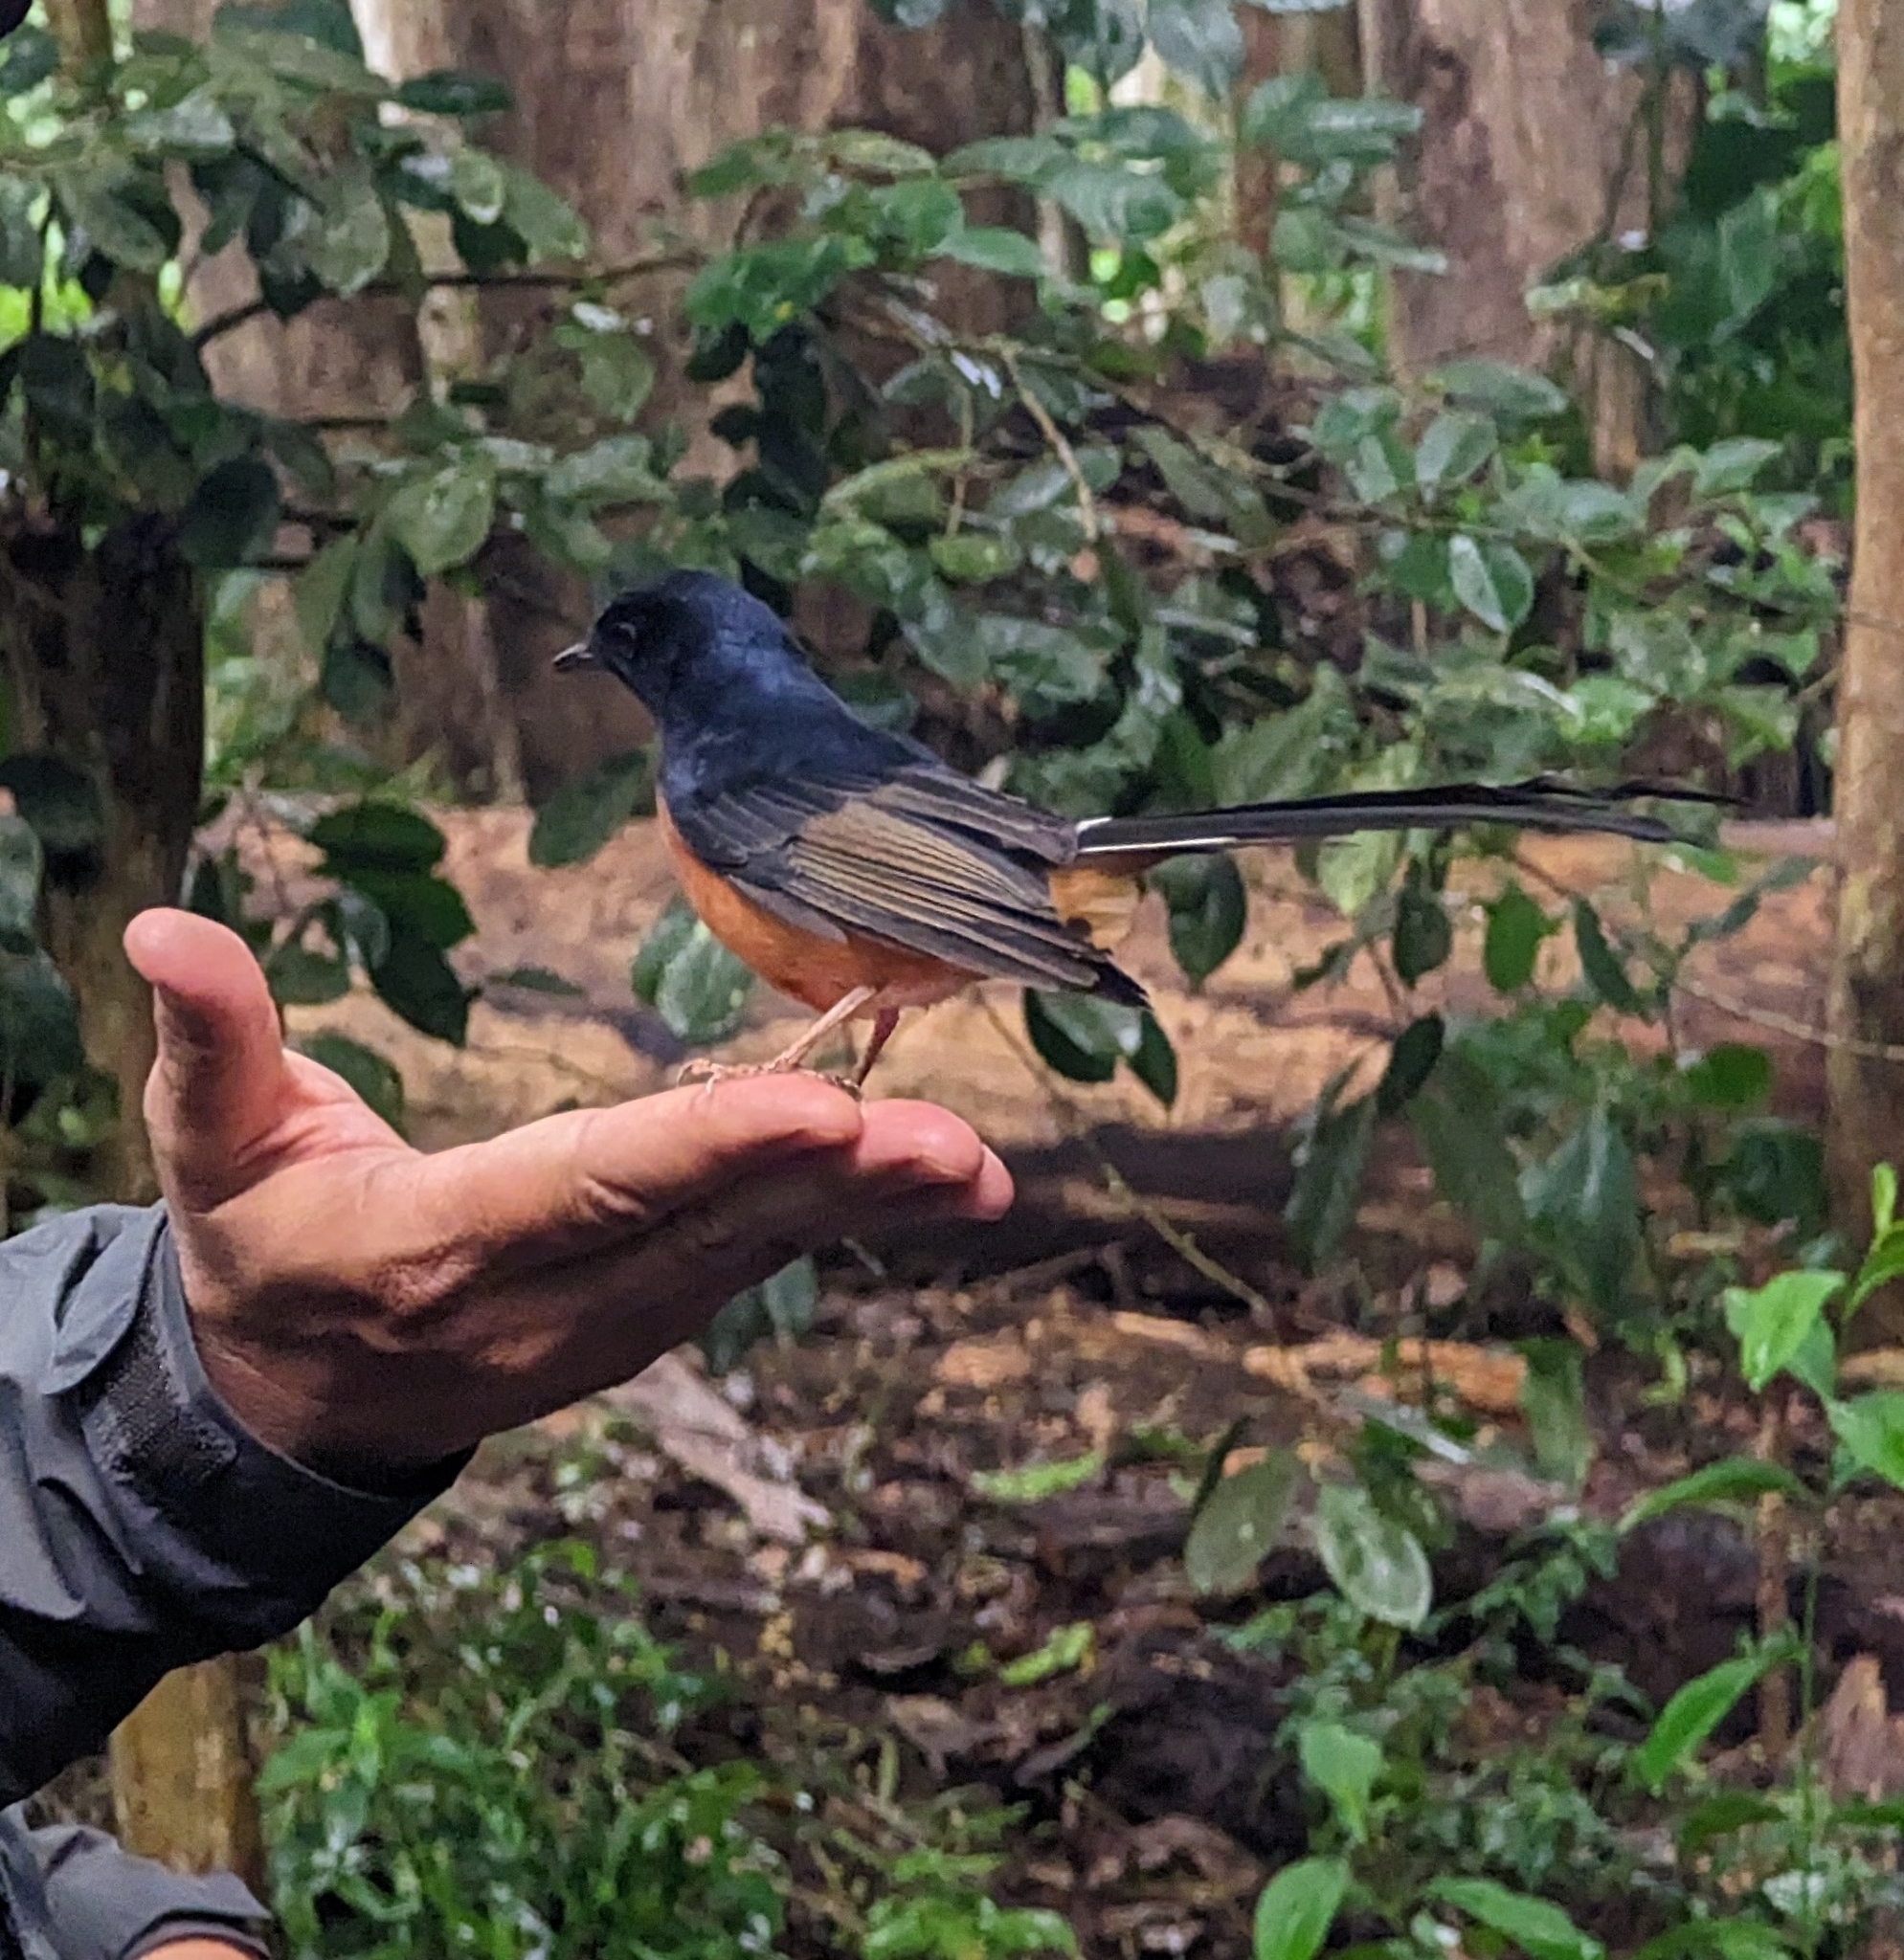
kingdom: Animalia
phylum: Chordata
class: Aves
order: Passeriformes
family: Muscicapidae
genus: Copsychus
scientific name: Copsychus malabaricus
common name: White-rumped shama
